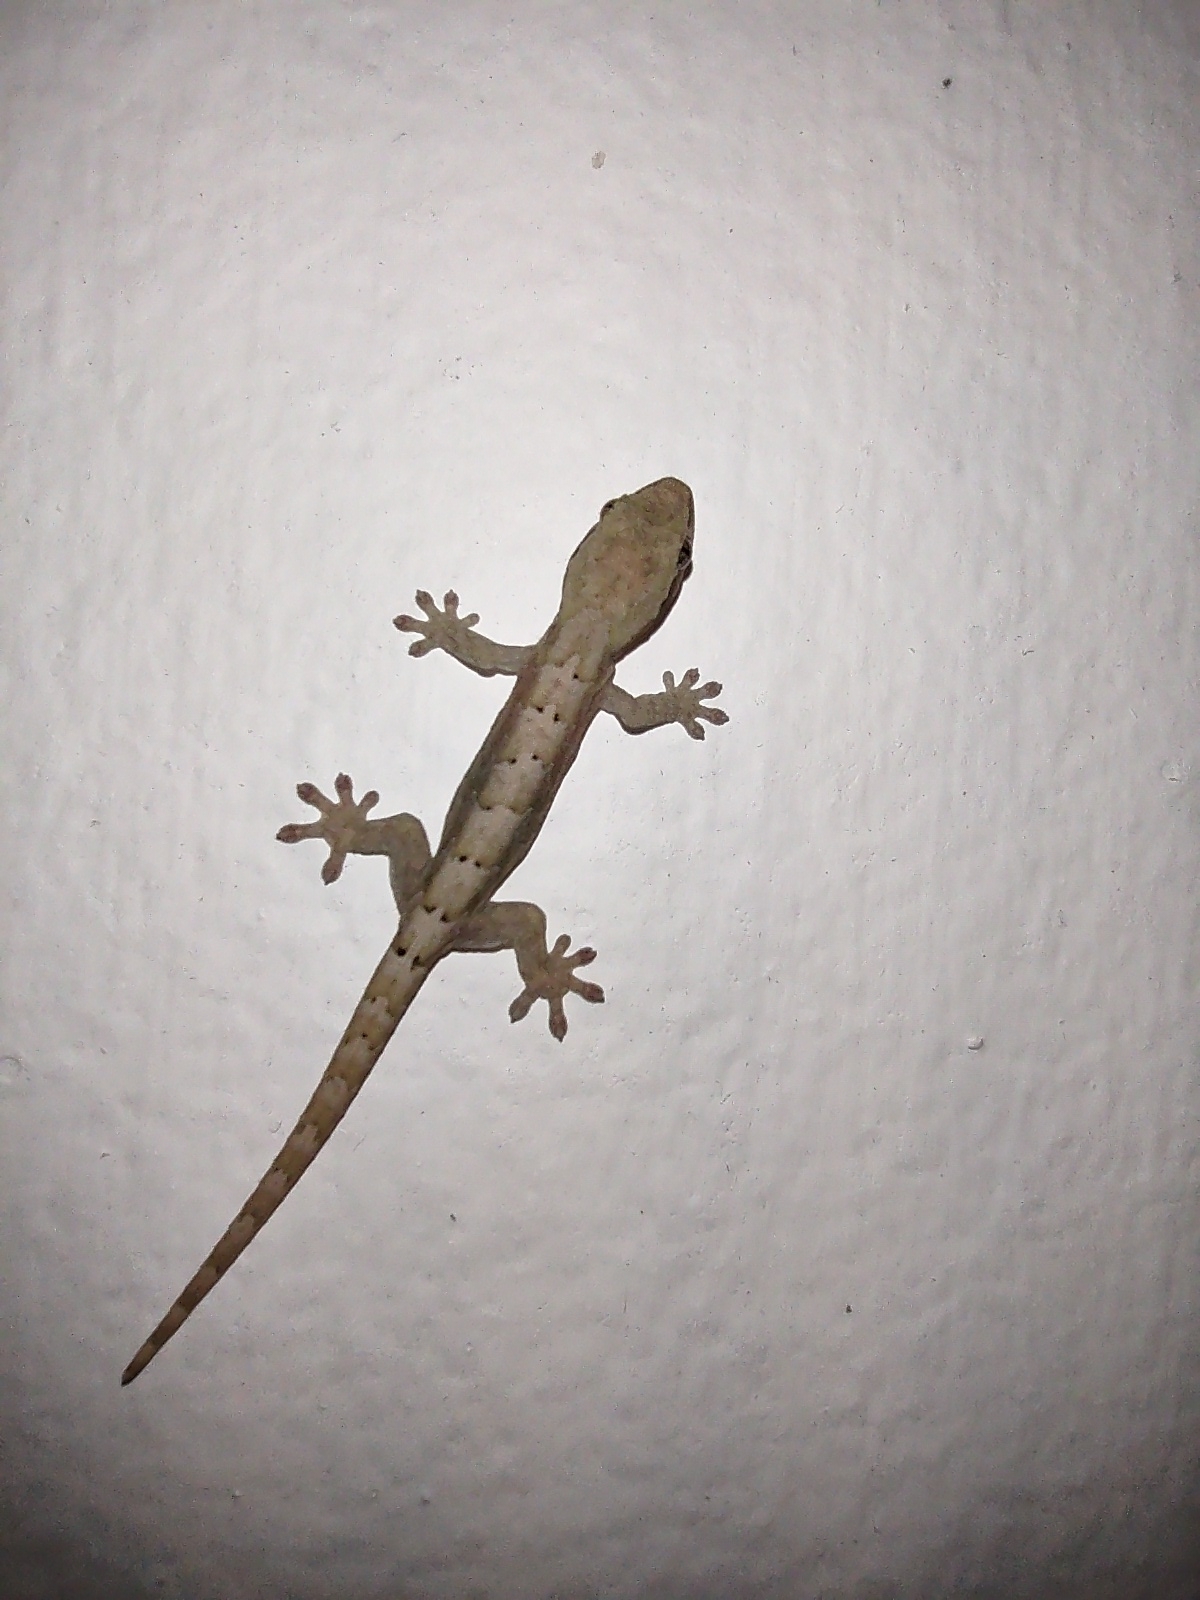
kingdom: Animalia
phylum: Chordata
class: Squamata
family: Gekkonidae
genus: Lepidodactylus
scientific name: Lepidodactylus lugubris
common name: Mourning gecko
